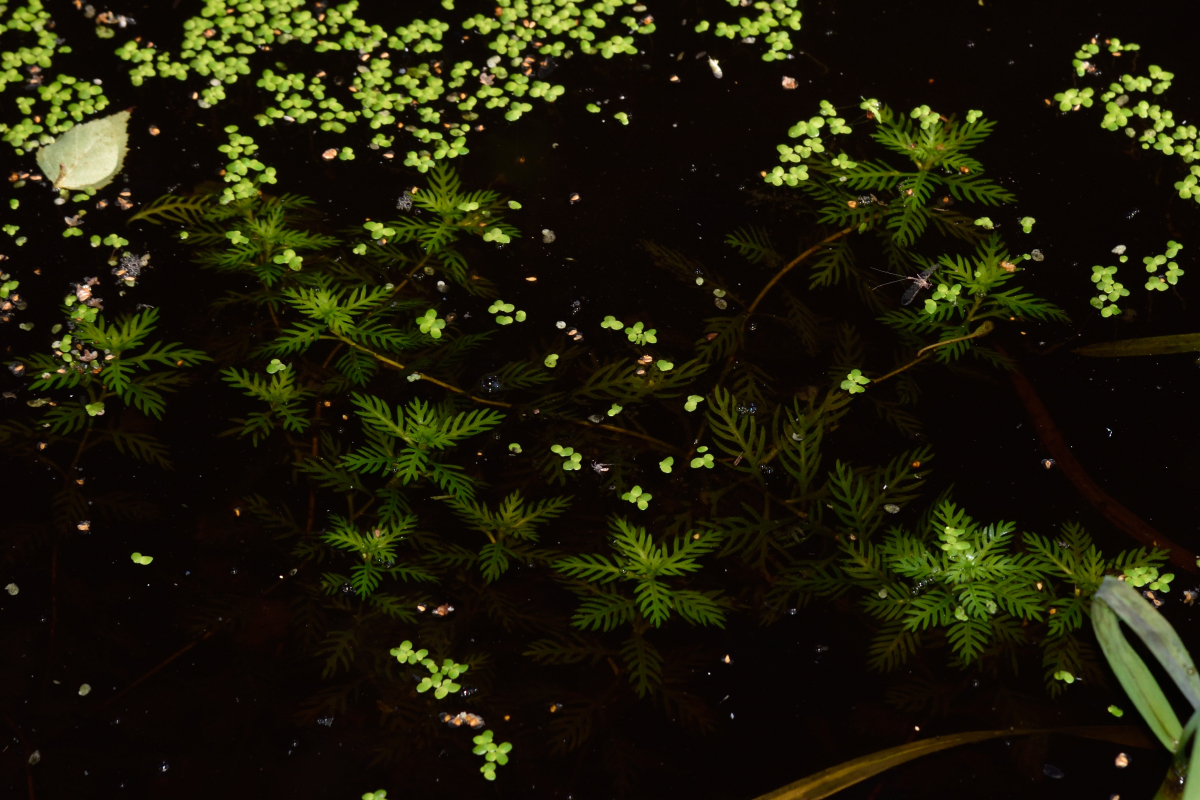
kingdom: Plantae
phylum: Tracheophyta
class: Magnoliopsida
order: Ericales
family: Primulaceae
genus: Hottonia
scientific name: Hottonia palustris
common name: Water-violet
